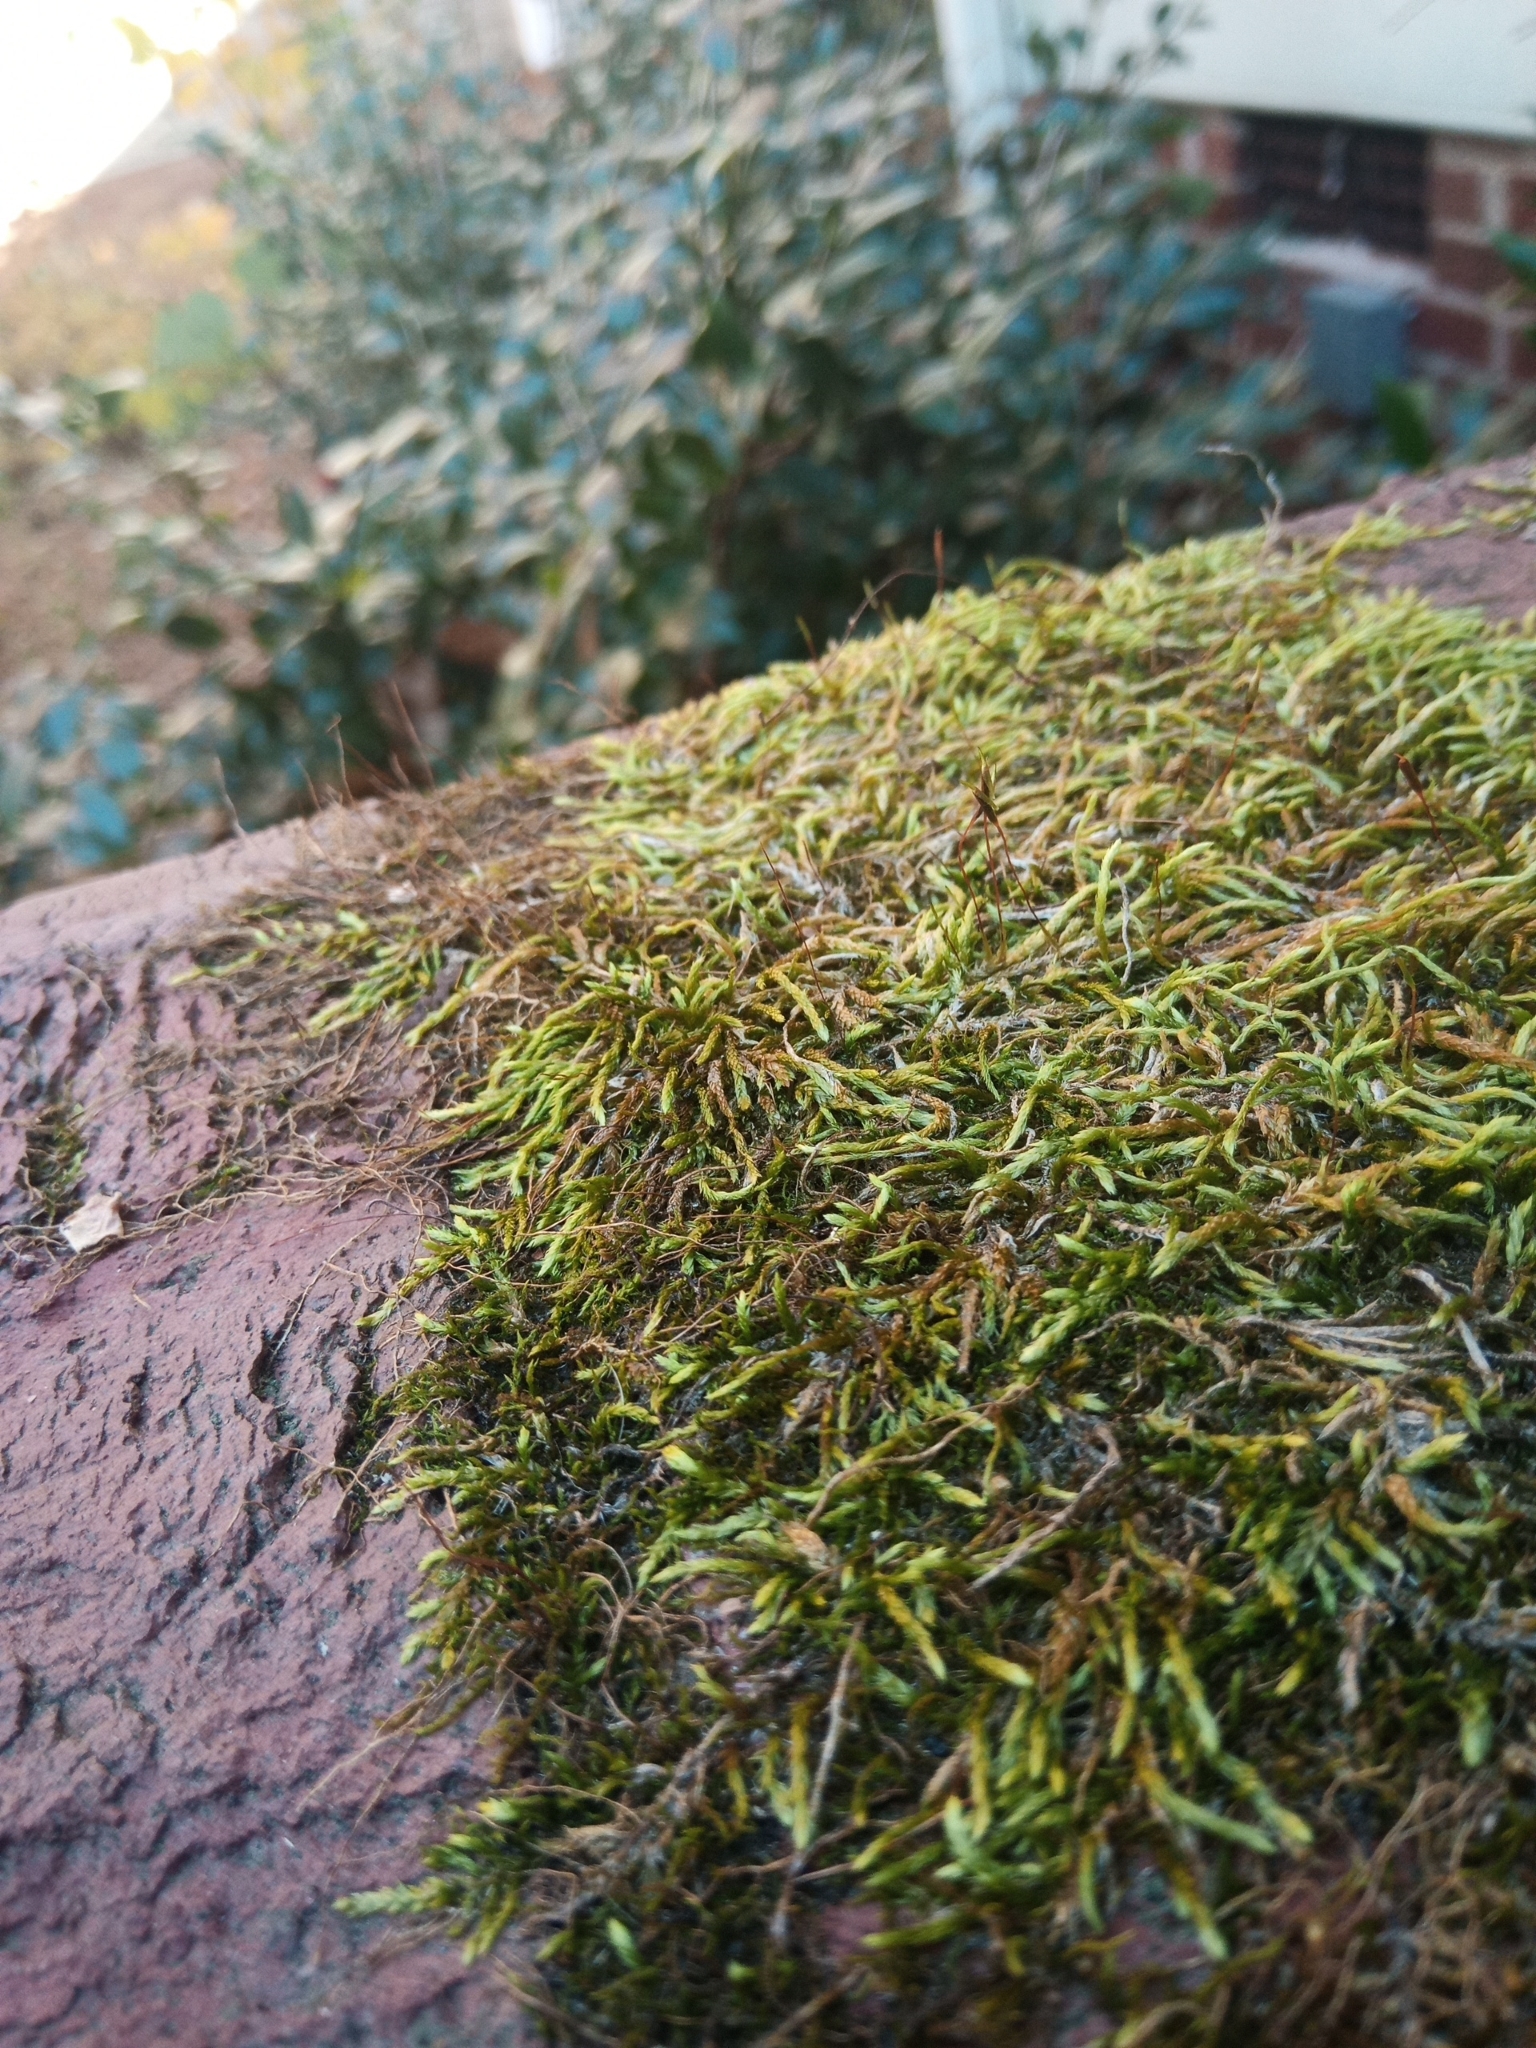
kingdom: Plantae
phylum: Bryophyta
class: Bryopsida
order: Hypnales
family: Entodontaceae
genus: Entodon
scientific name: Entodon seductrix
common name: Round-stemmed entodon moss
